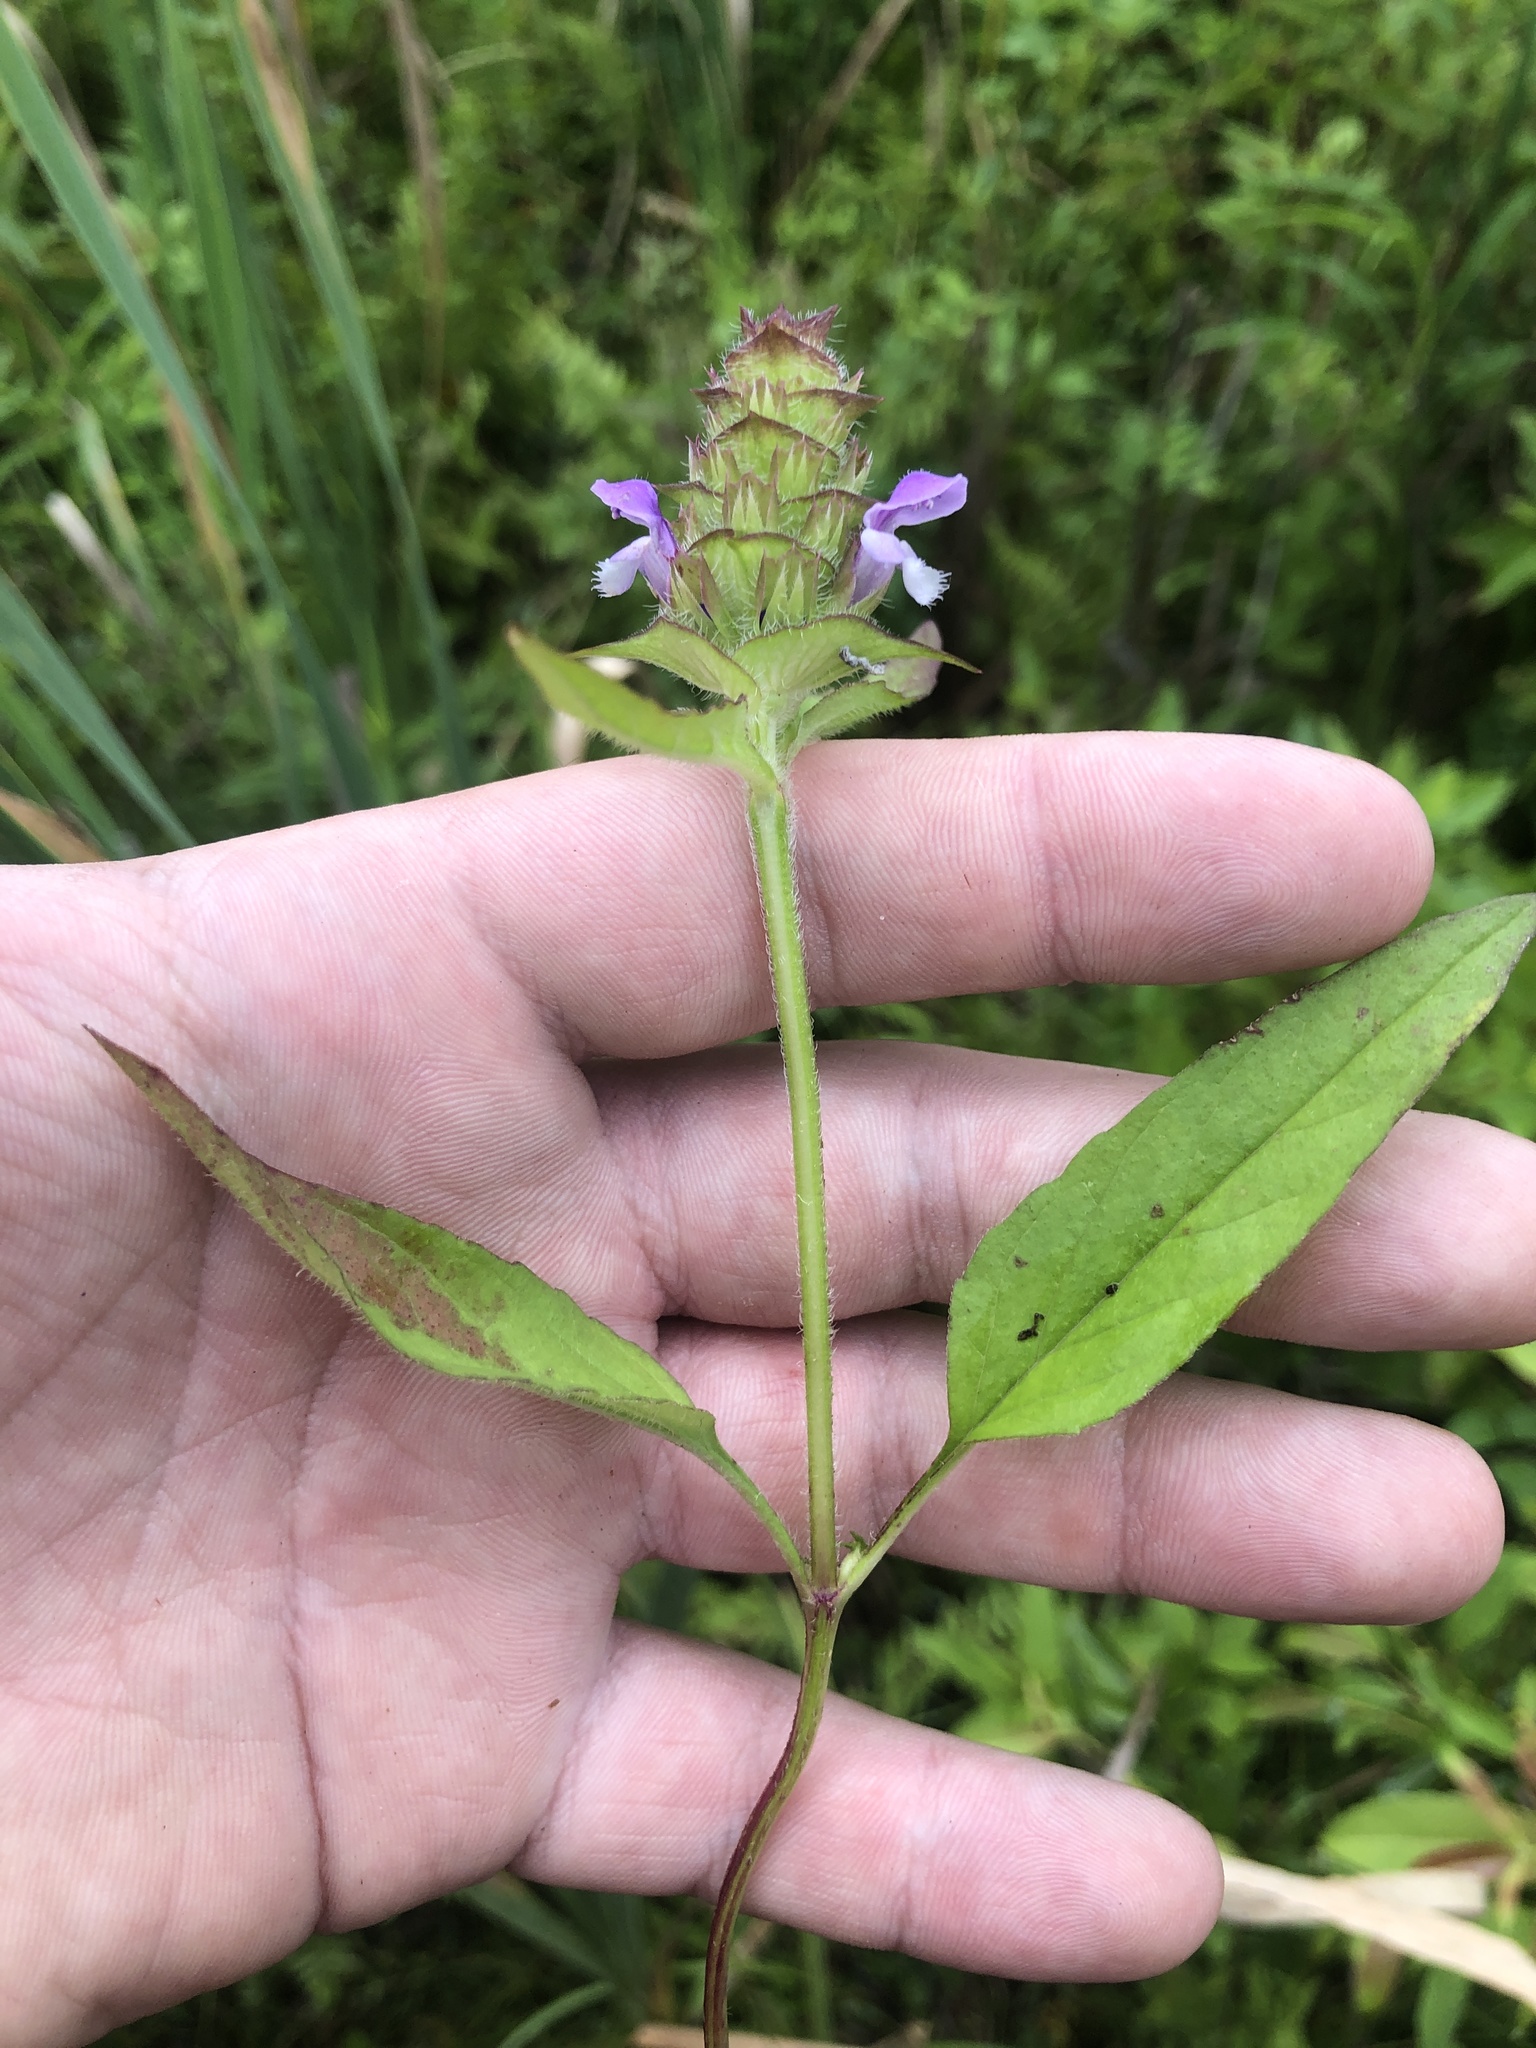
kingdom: Plantae
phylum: Tracheophyta
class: Magnoliopsida
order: Lamiales
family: Lamiaceae
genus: Prunella
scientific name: Prunella vulgaris
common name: Heal-all
